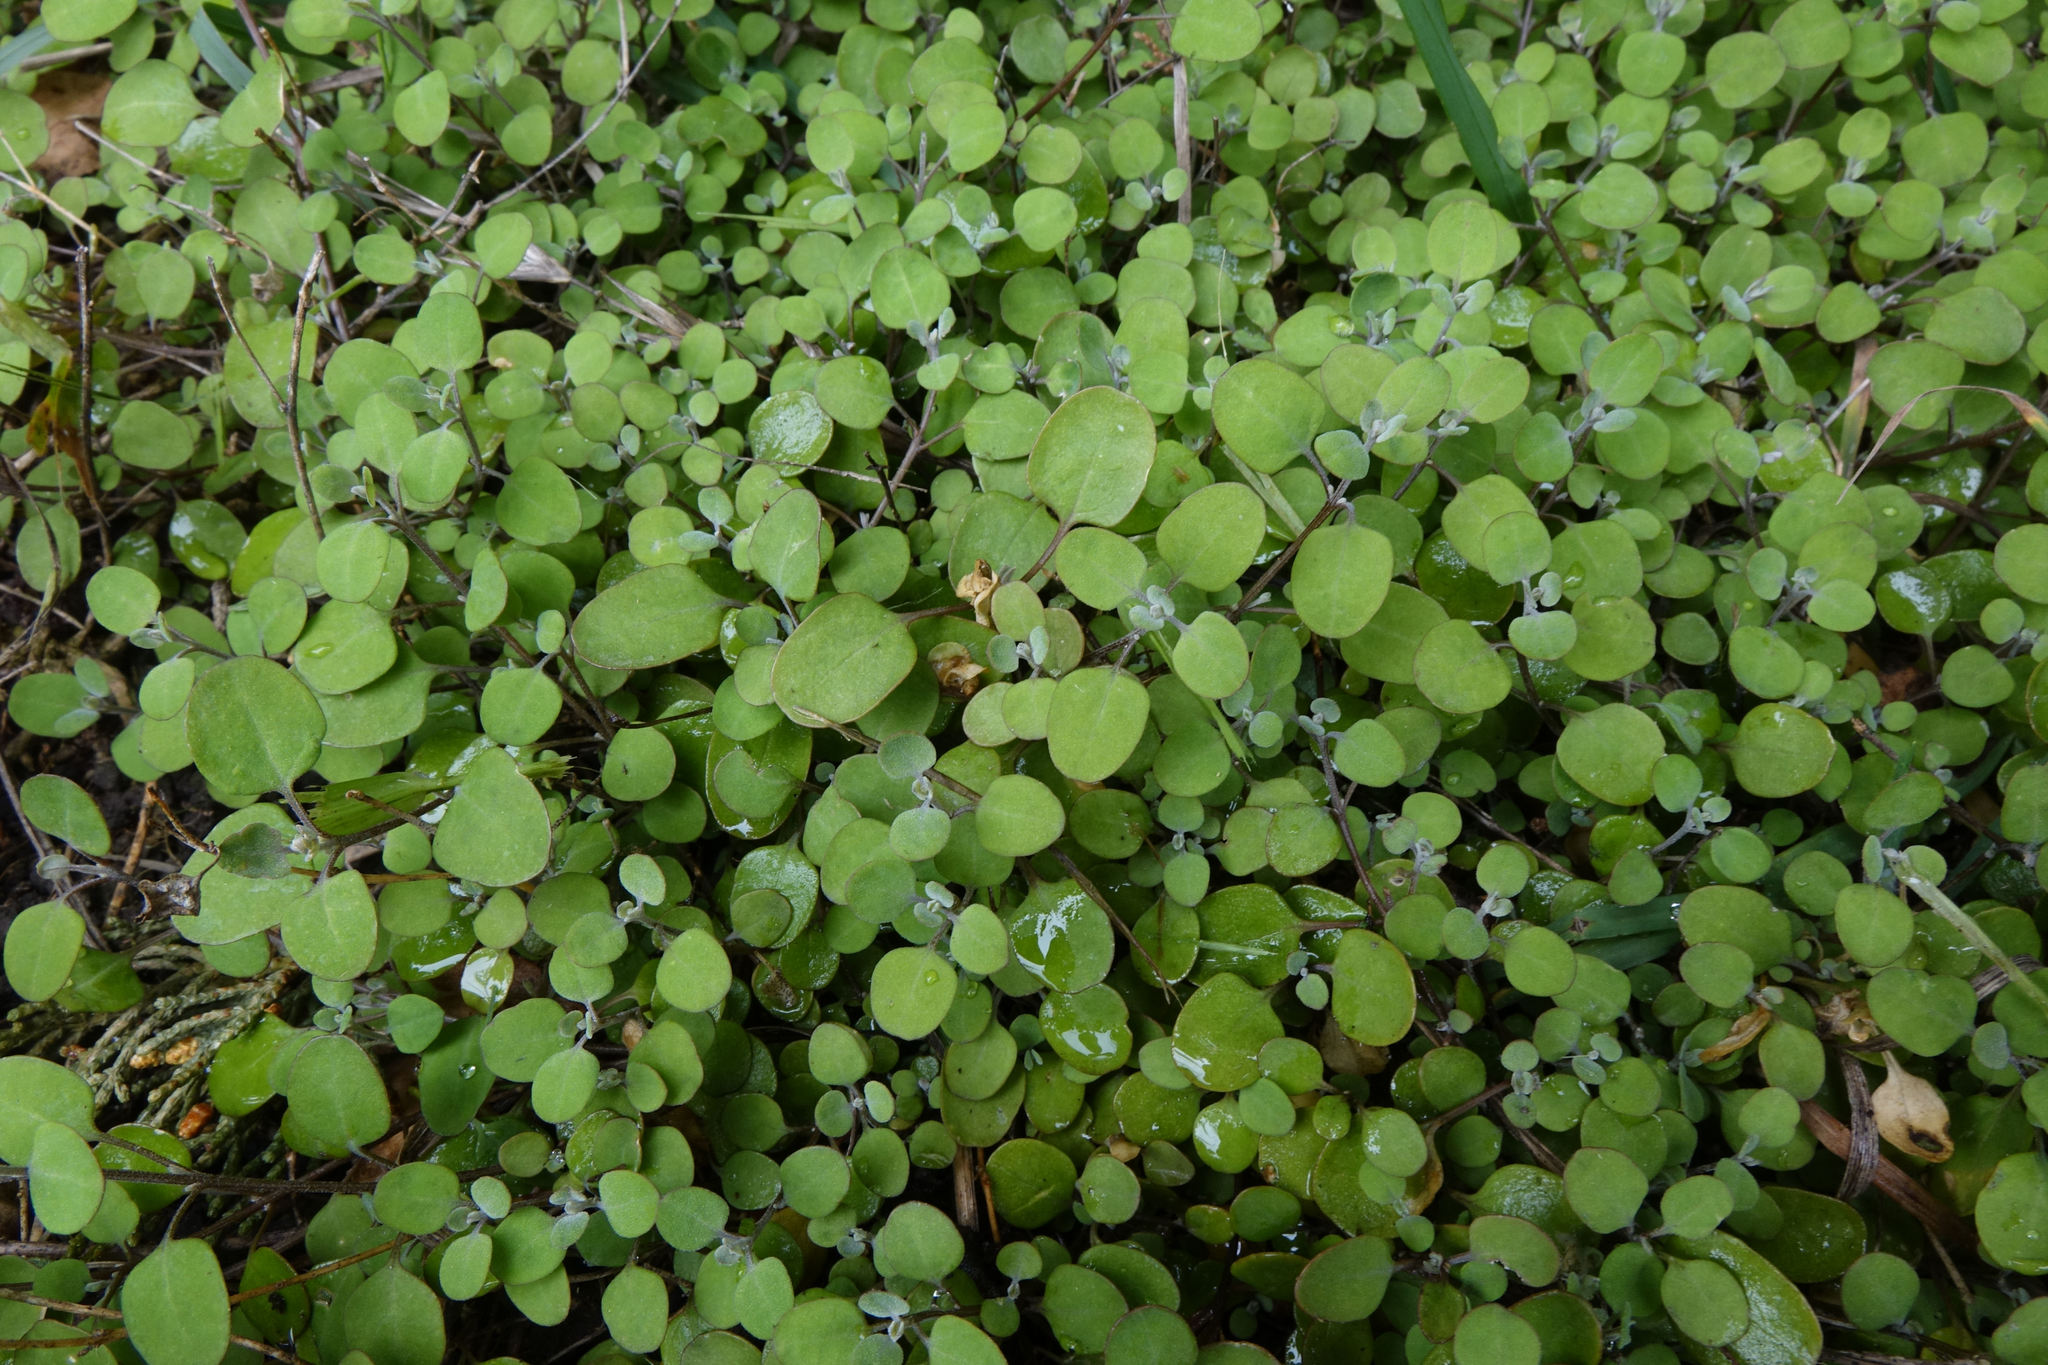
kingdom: Plantae
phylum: Tracheophyta
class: Magnoliopsida
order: Caryophyllales
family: Amaranthaceae
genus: Chenopodium
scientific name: Chenopodium allanii
